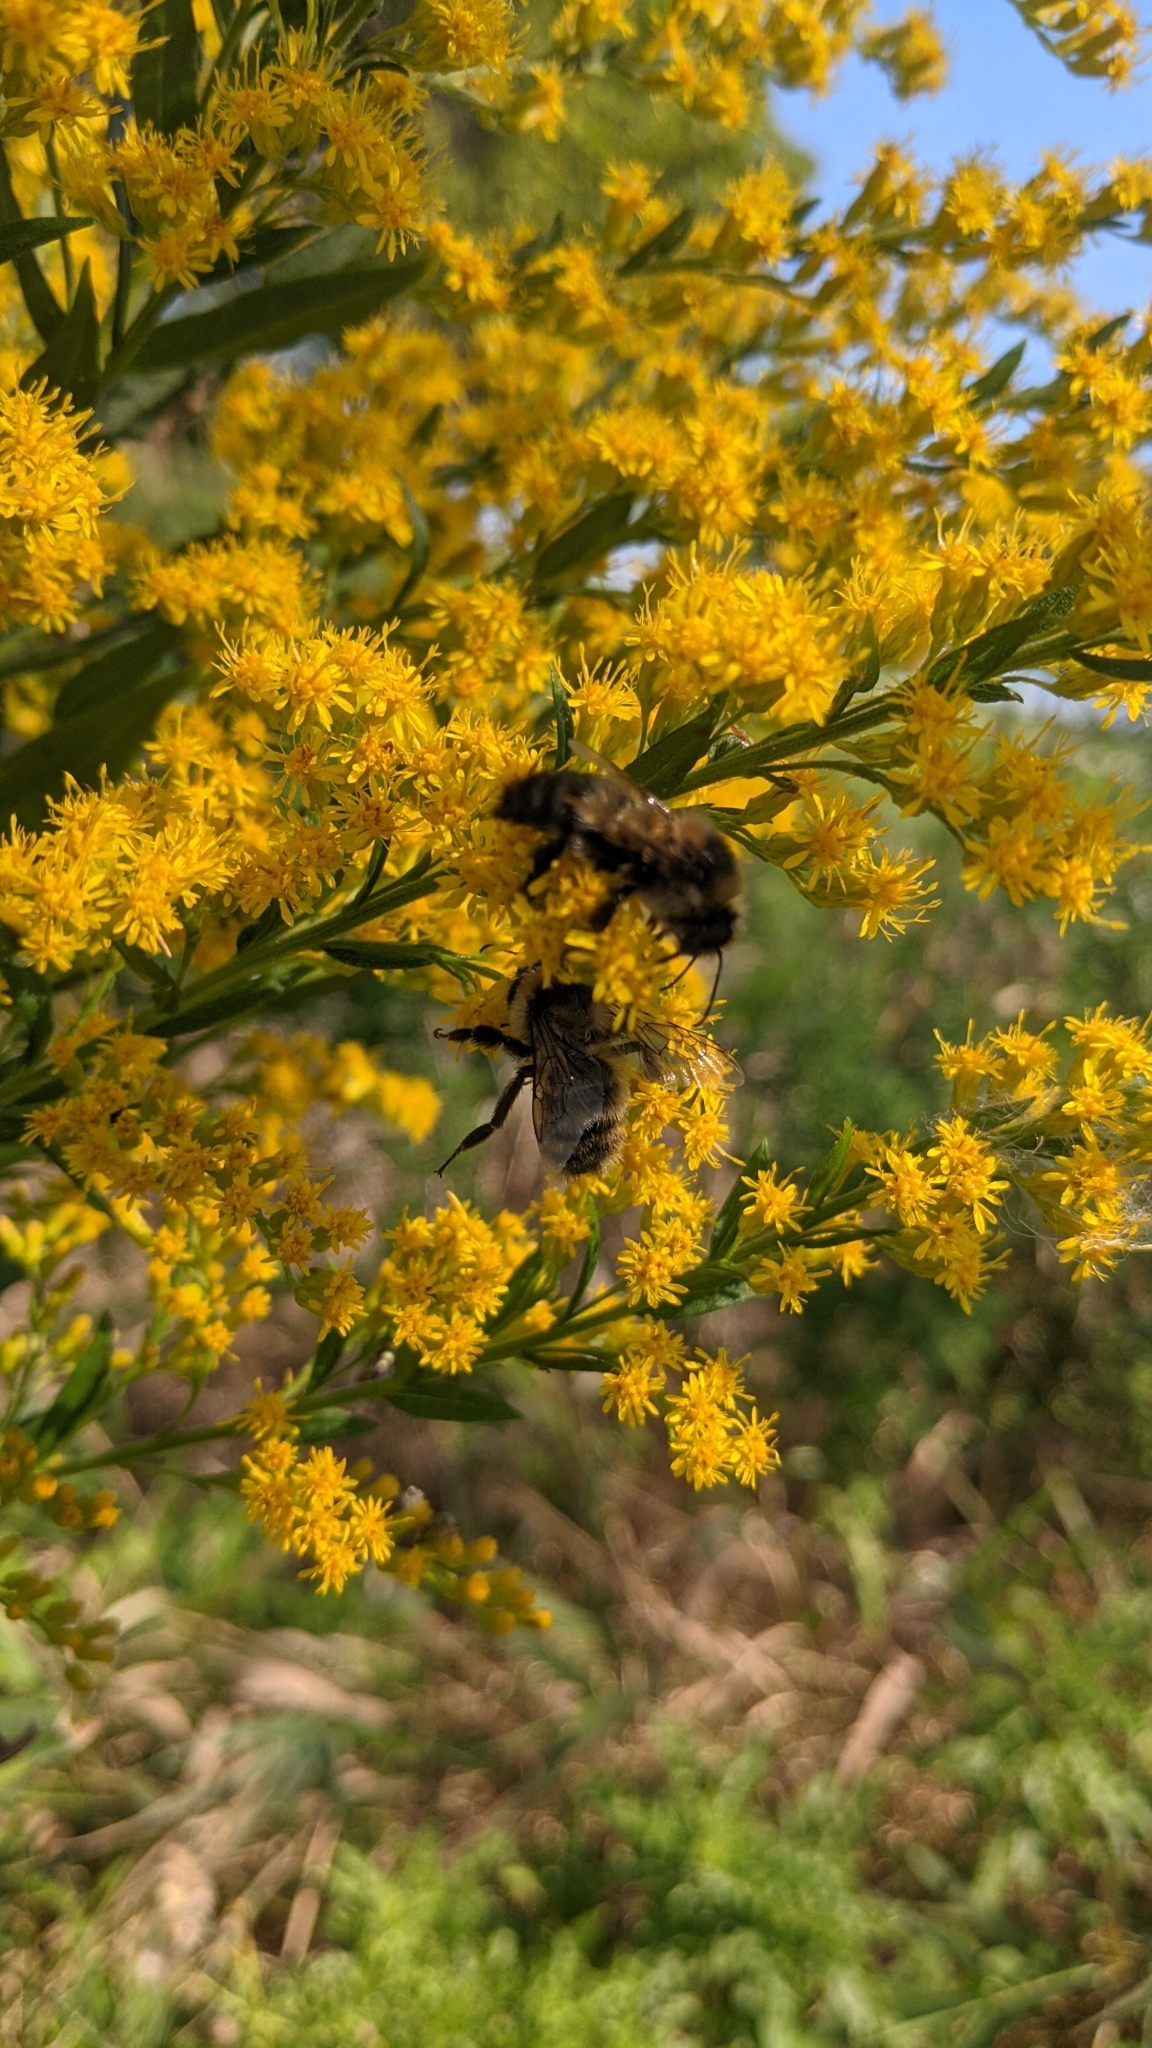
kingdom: Animalia
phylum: Arthropoda
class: Insecta
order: Hymenoptera
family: Apidae
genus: Bombus
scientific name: Bombus rufocinctus
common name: Red-belted bumble bee
